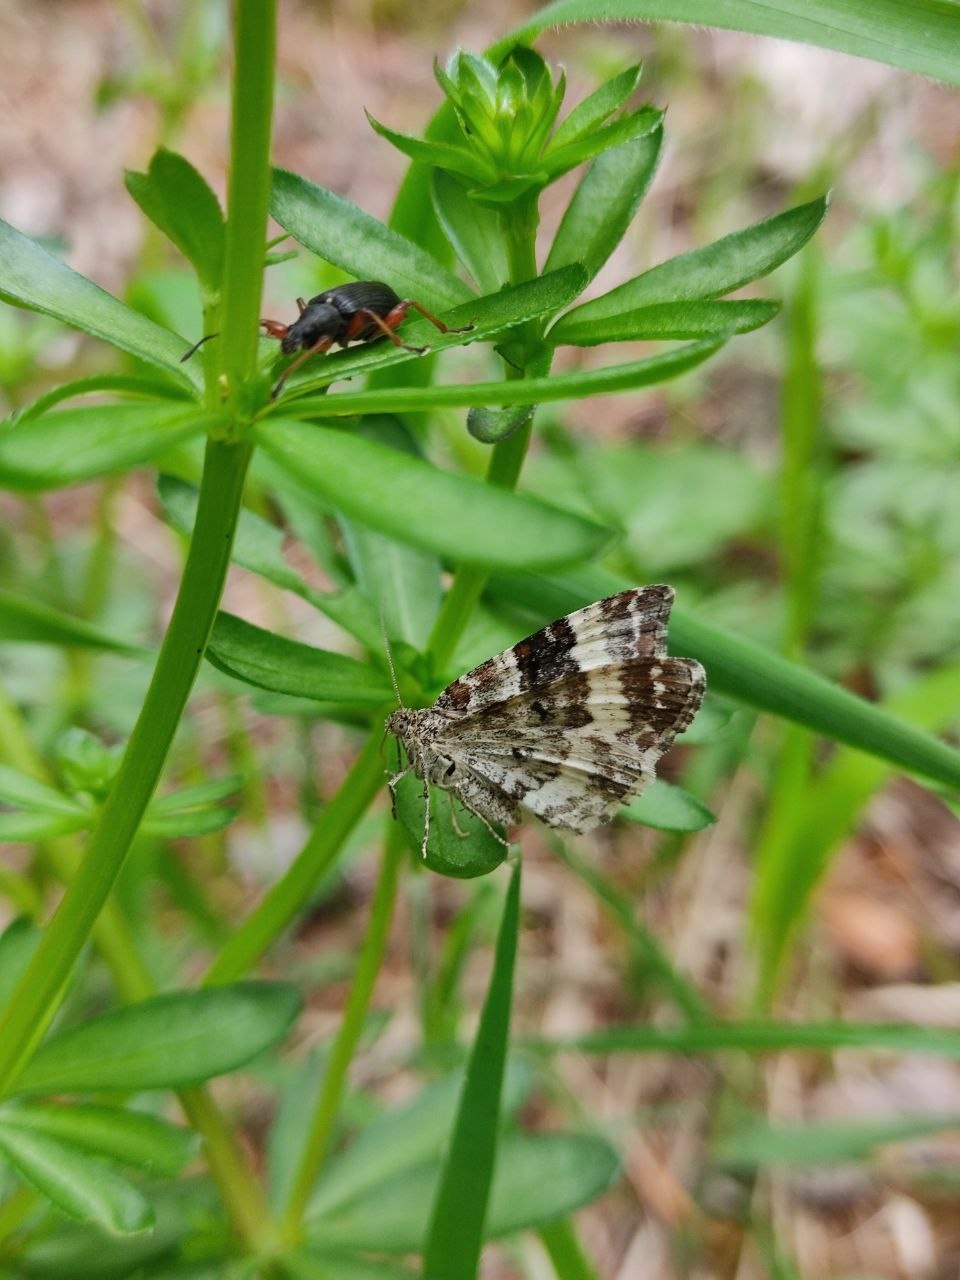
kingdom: Animalia
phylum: Arthropoda
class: Insecta
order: Lepidoptera
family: Geometridae
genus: Epirrhoe
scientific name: Epirrhoe alternata
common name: Common carpet
